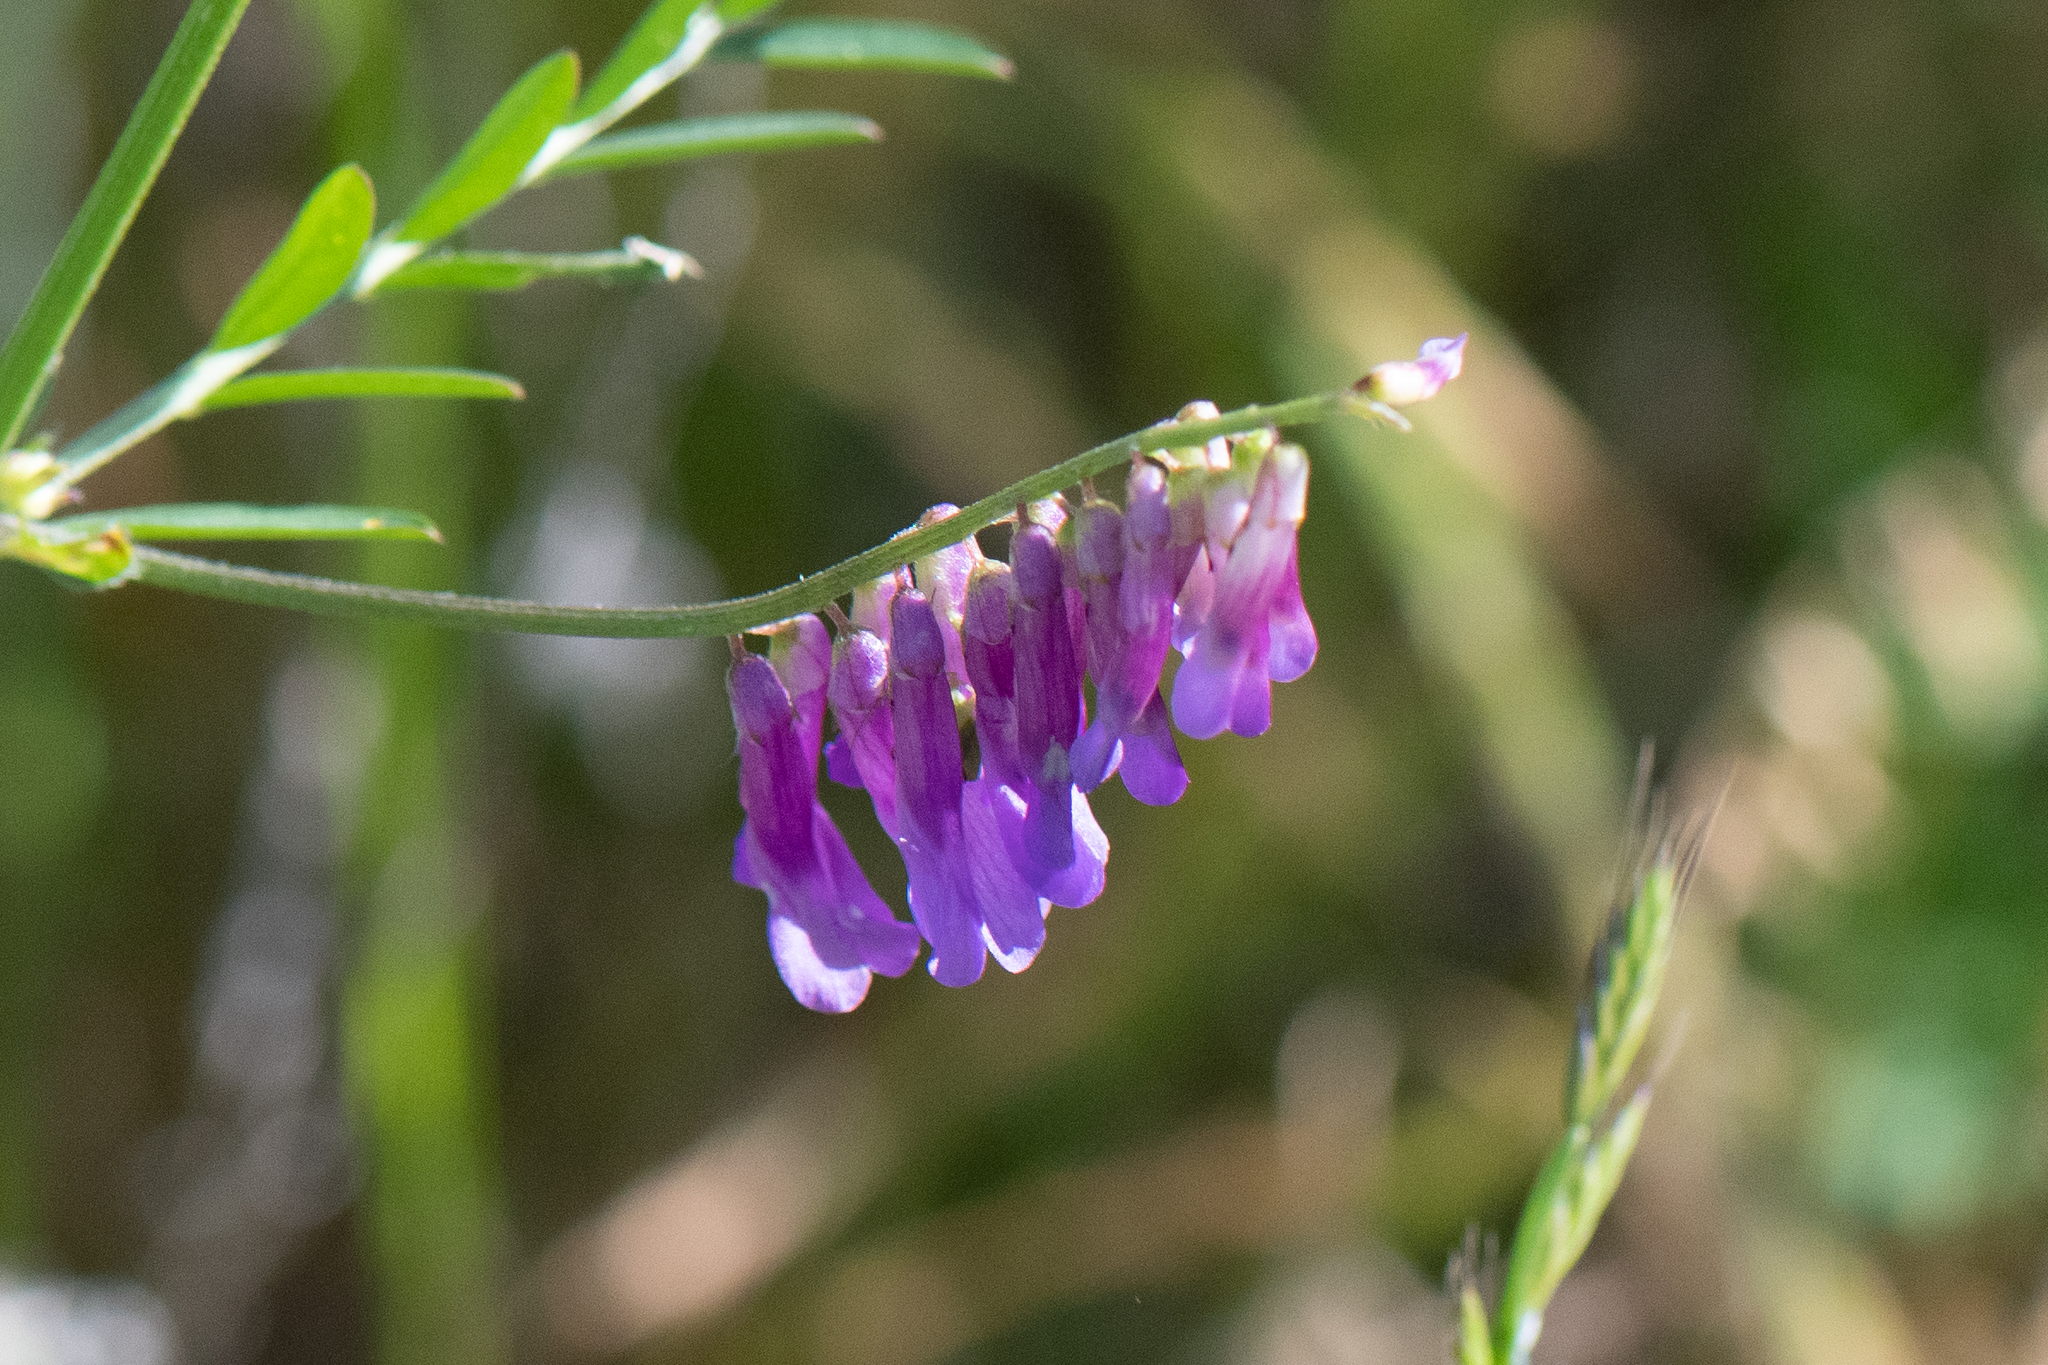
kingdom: Plantae
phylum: Tracheophyta
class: Magnoliopsida
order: Fabales
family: Fabaceae
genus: Vicia
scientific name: Vicia villosa
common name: Fodder vetch
